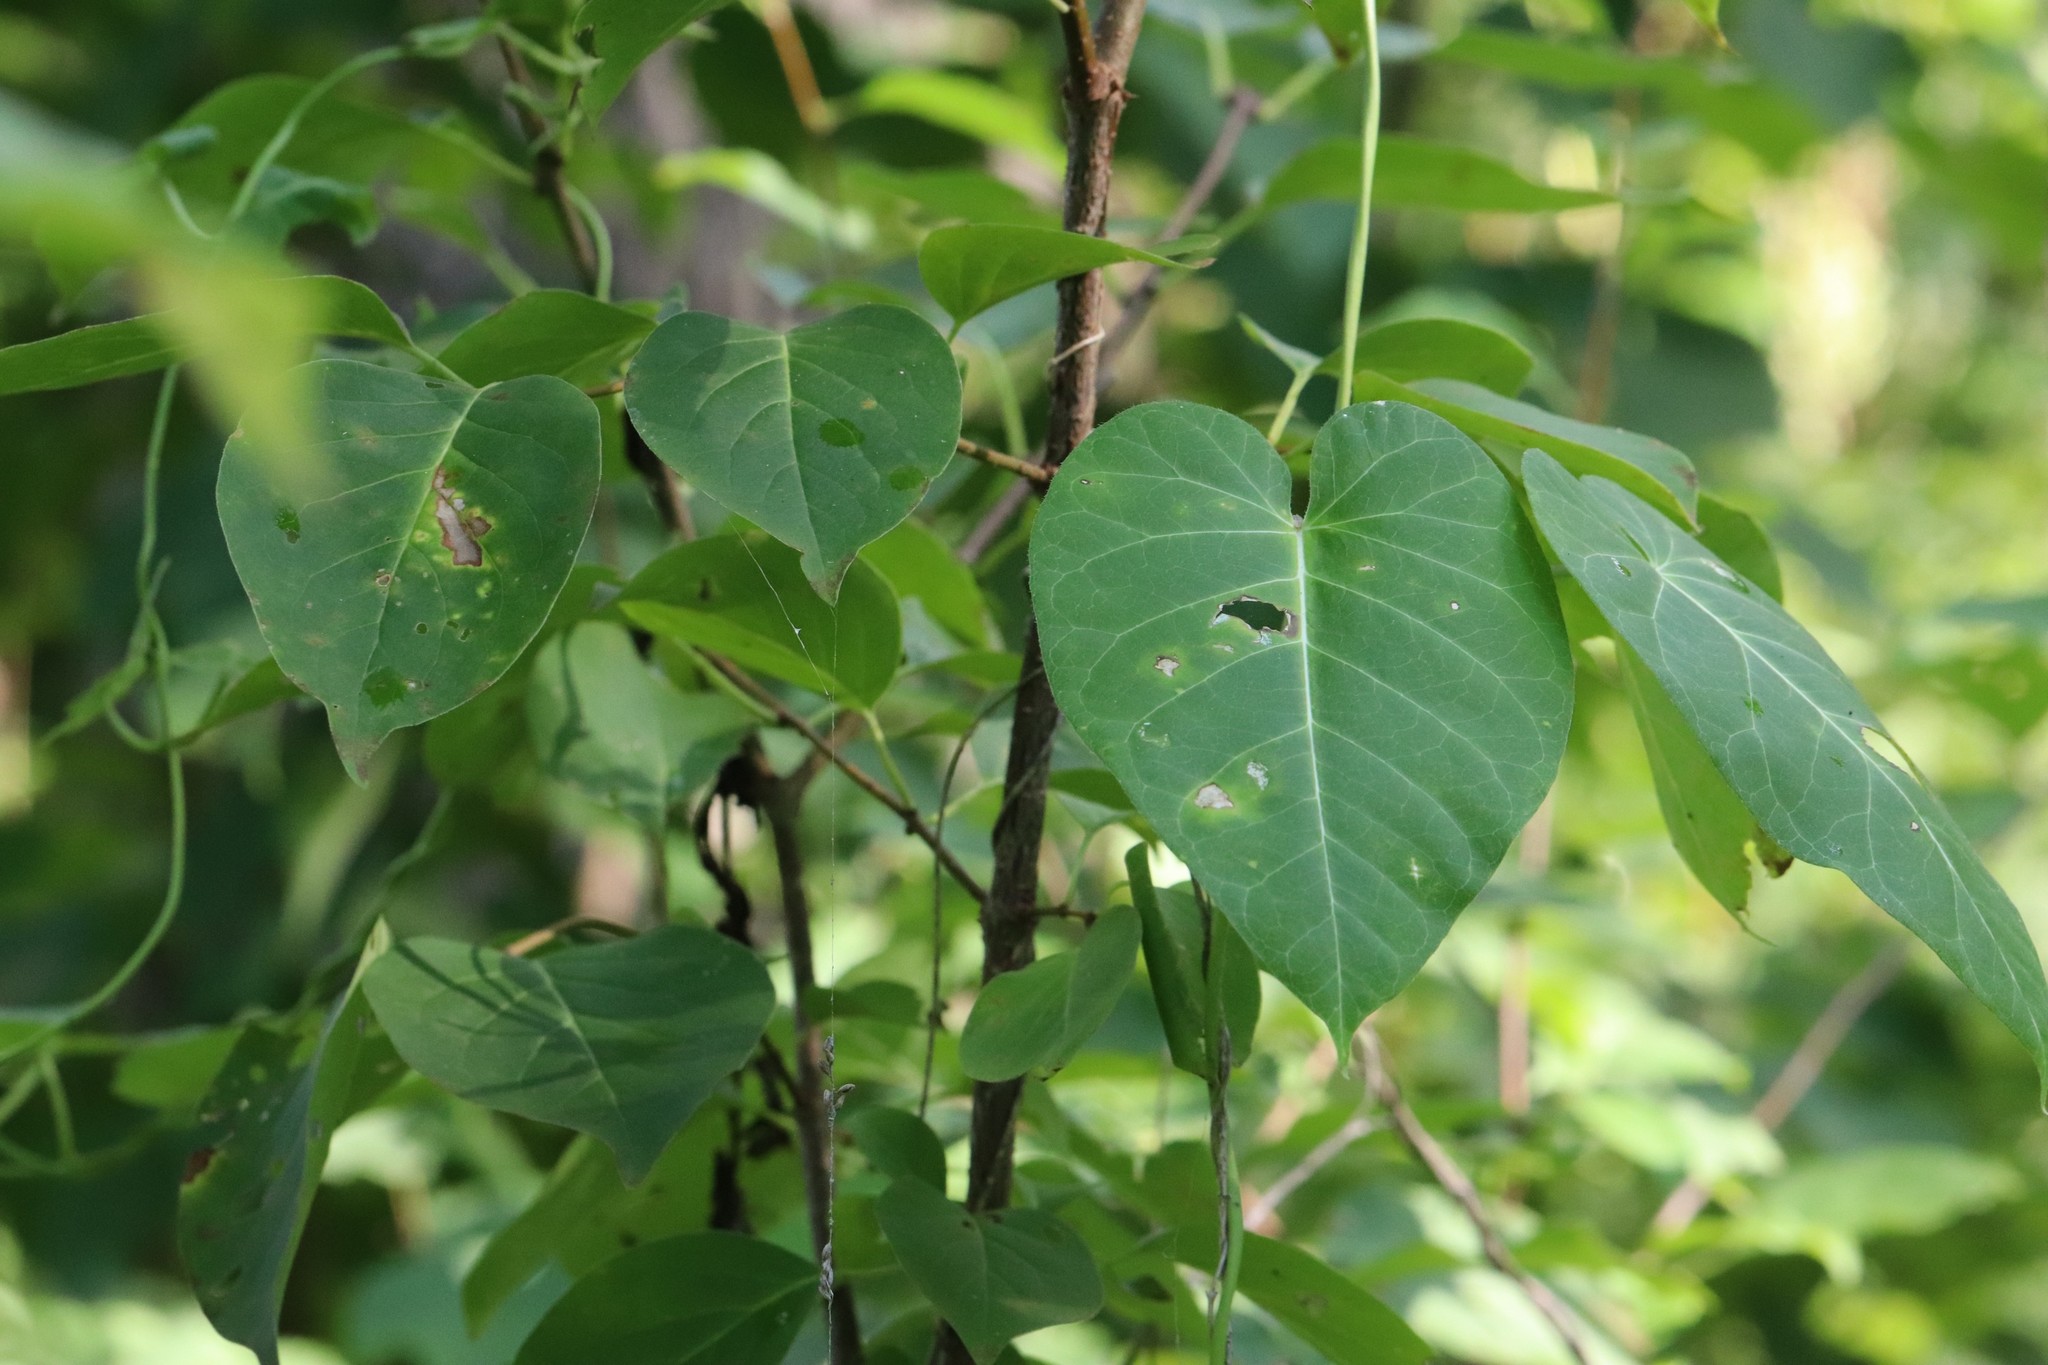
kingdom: Plantae
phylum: Tracheophyta
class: Magnoliopsida
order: Gentianales
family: Apocynaceae
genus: Cynanchum
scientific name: Cynanchum rostellatum
